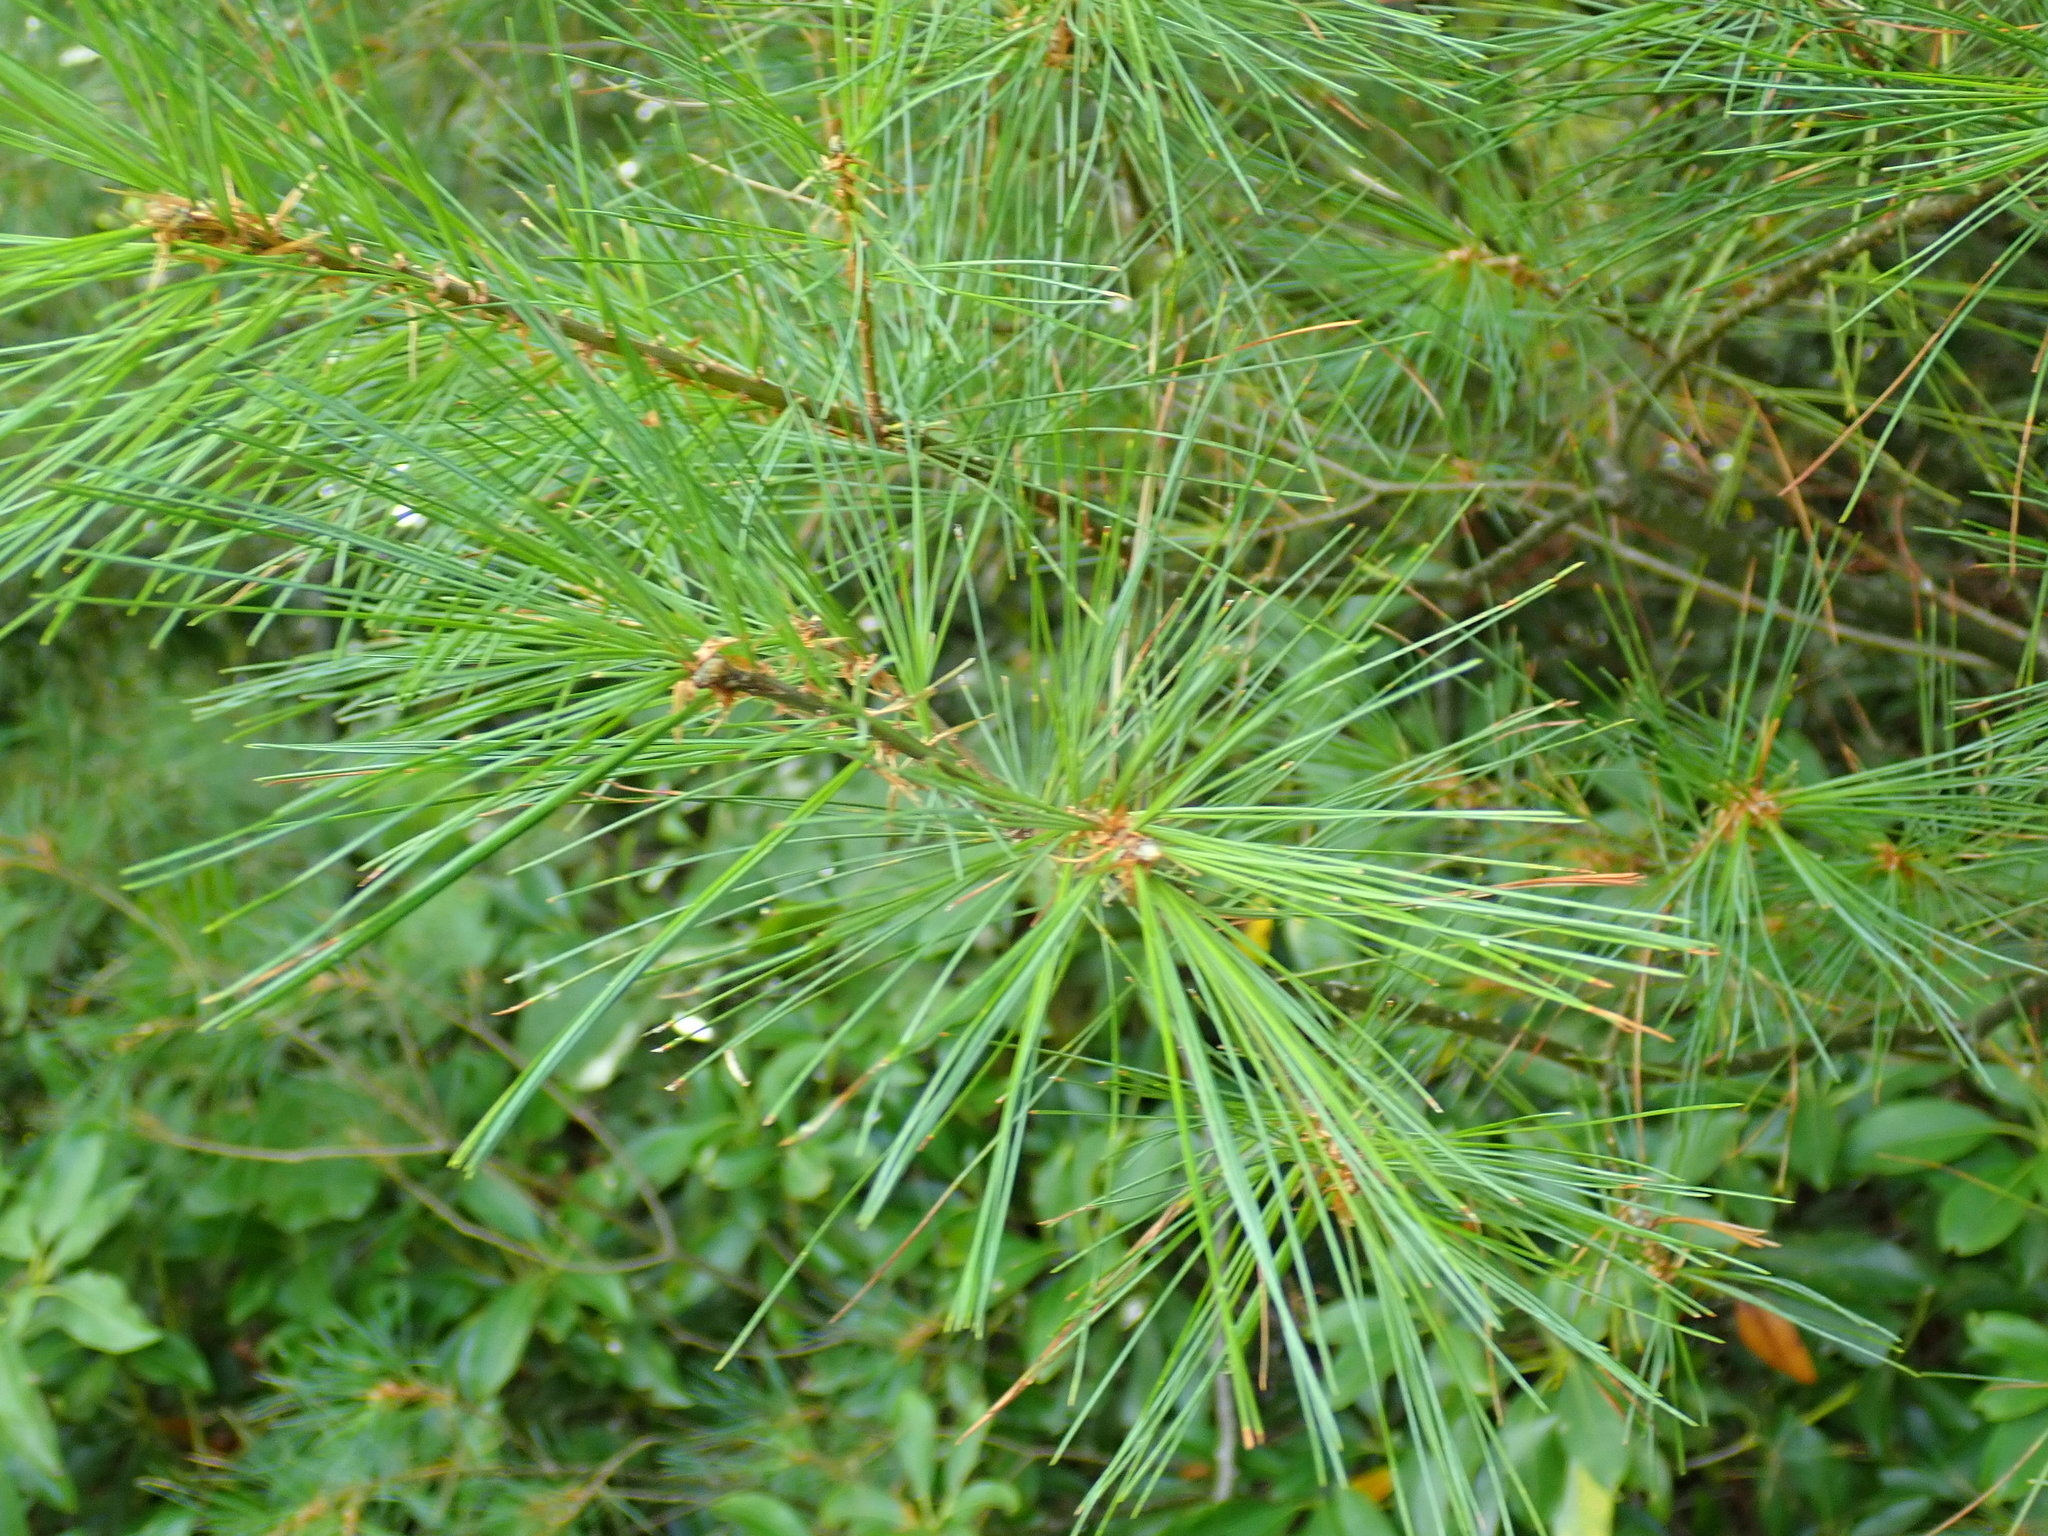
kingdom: Plantae
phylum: Tracheophyta
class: Pinopsida
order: Pinales
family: Pinaceae
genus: Pinus
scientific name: Pinus strobus
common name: Weymouth pine
